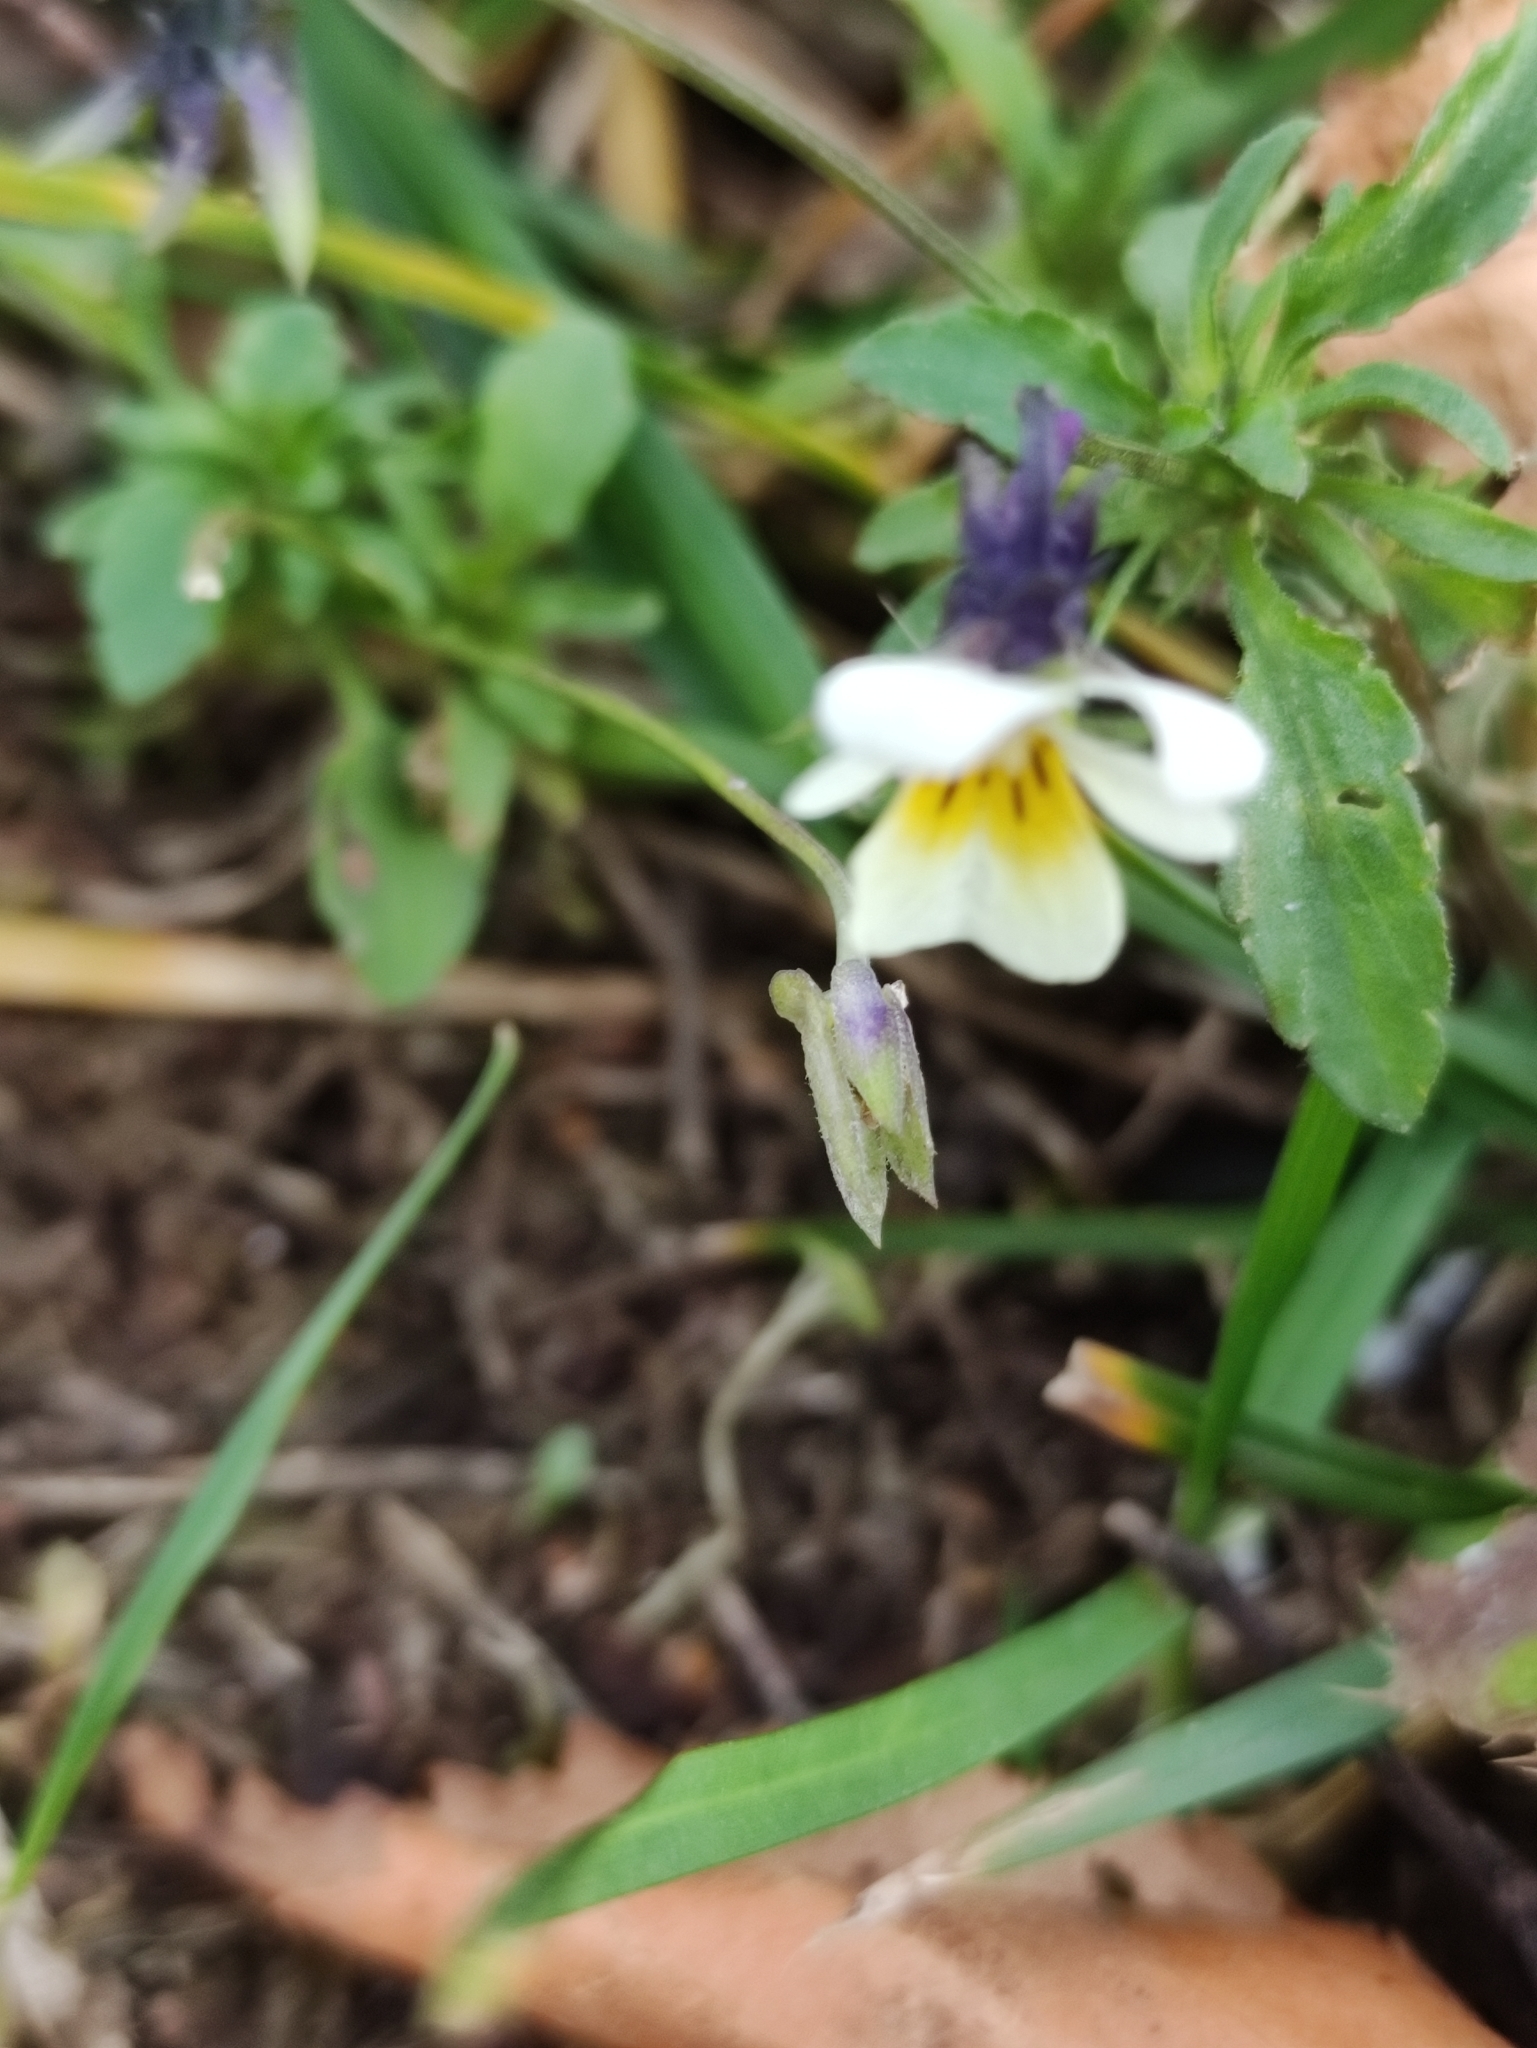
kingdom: Plantae
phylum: Tracheophyta
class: Magnoliopsida
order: Malpighiales
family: Violaceae
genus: Viola
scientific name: Viola arvensis
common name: Field pansy
